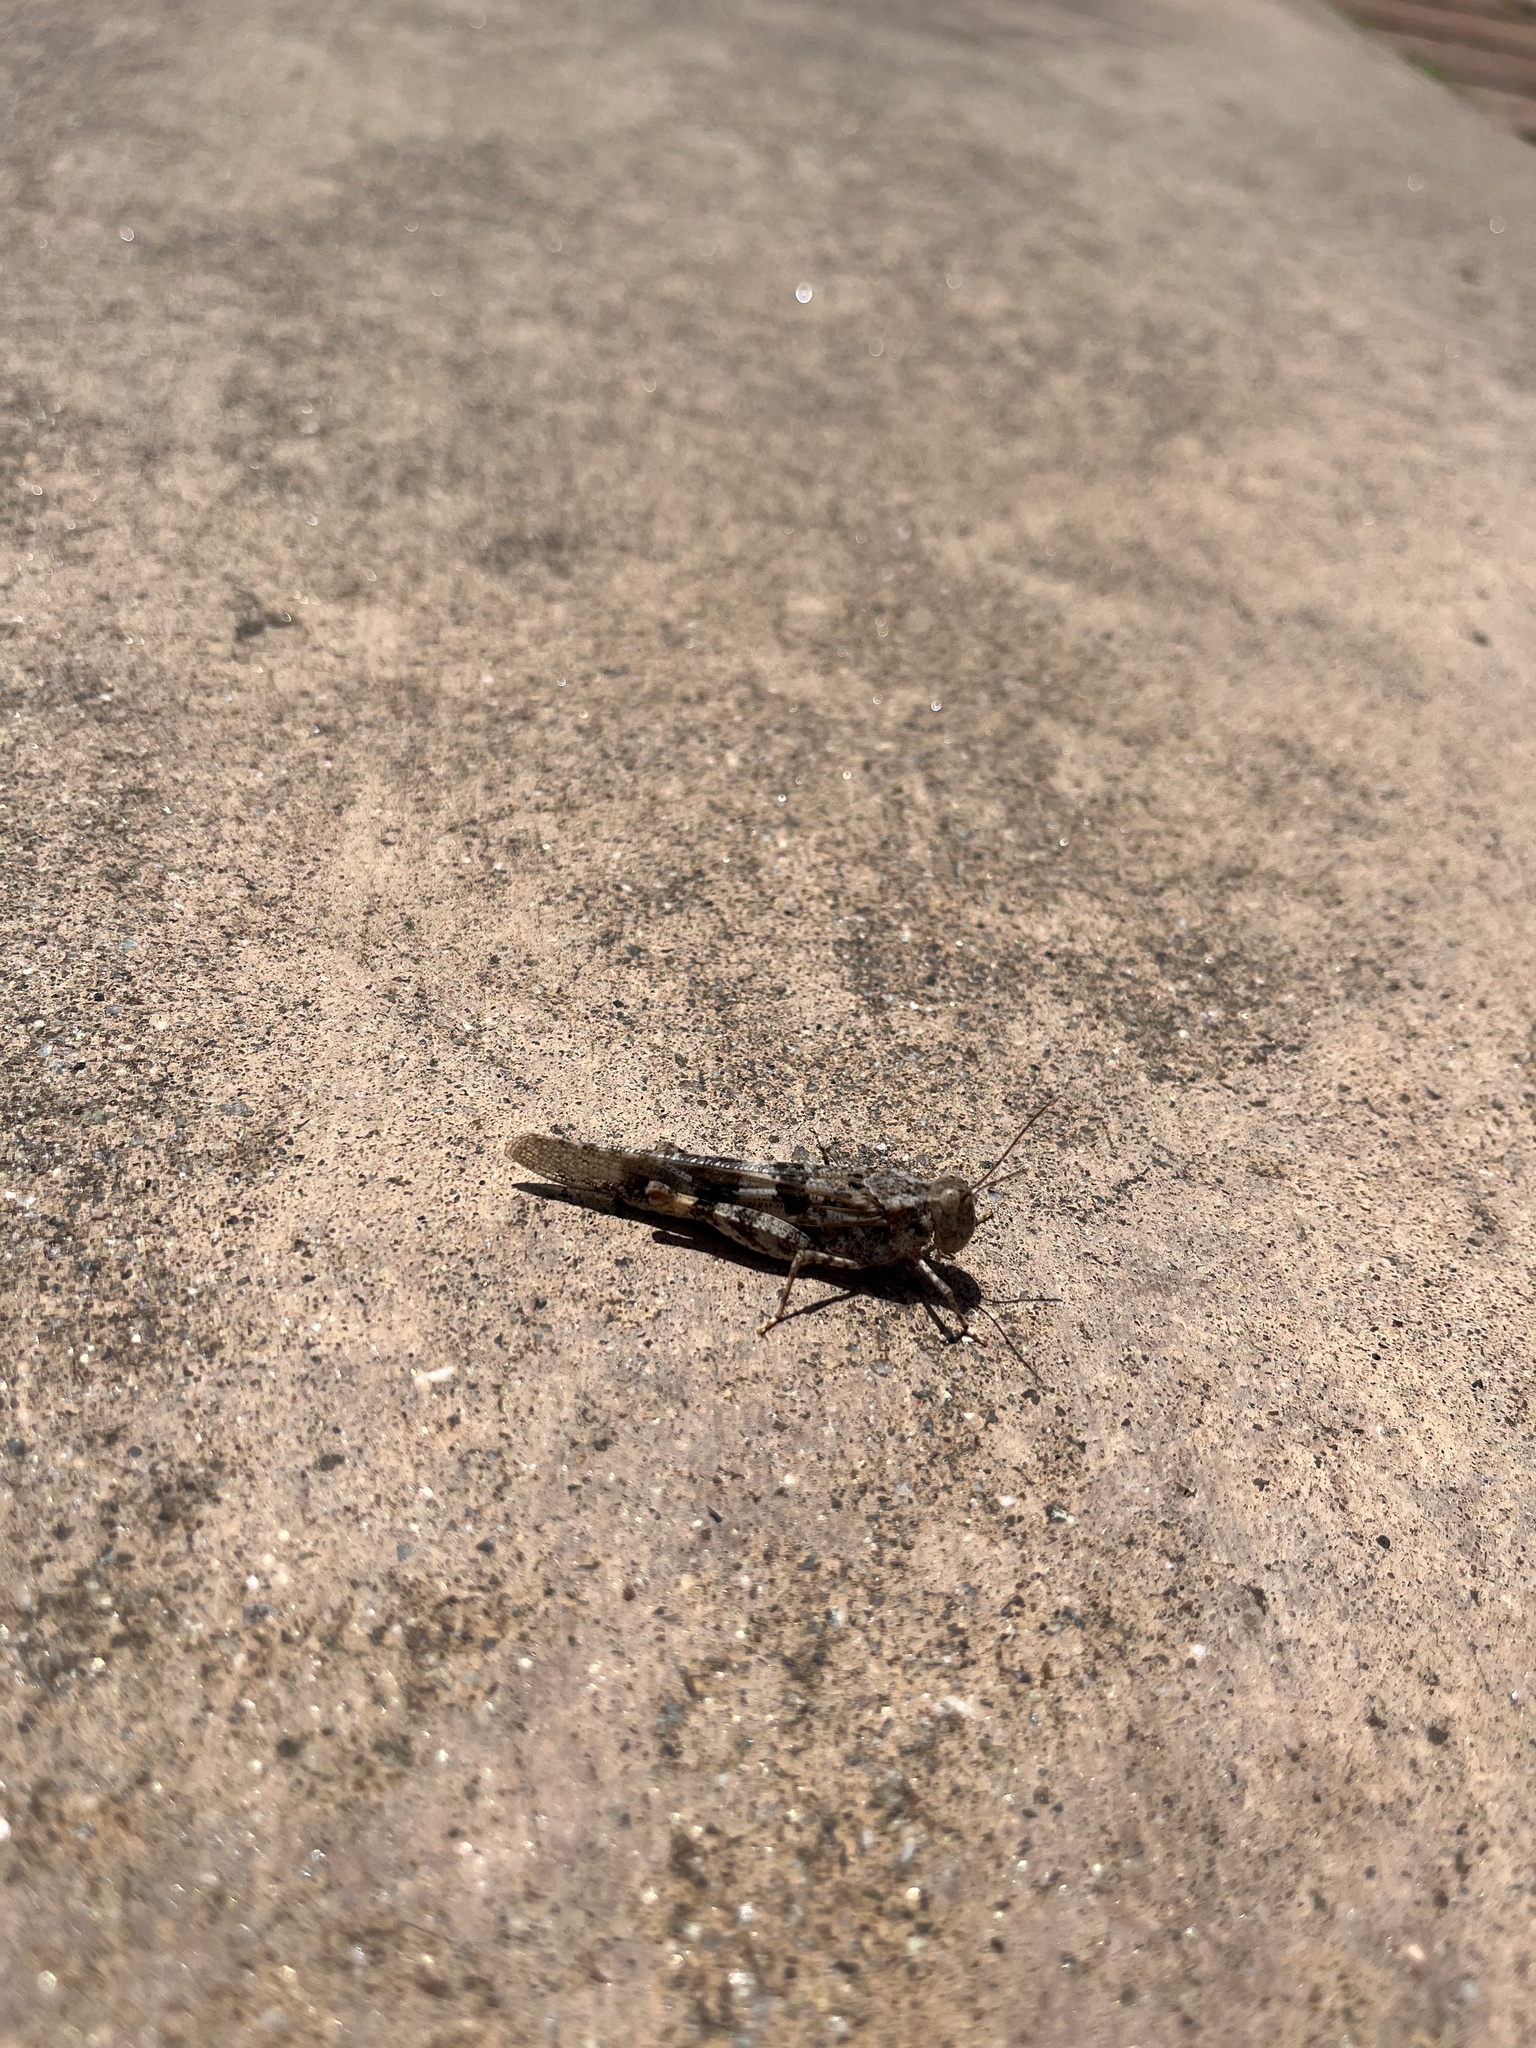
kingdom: Animalia
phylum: Arthropoda
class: Insecta
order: Orthoptera
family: Acrididae
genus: Trimerotropis
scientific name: Trimerotropis pallidipennis
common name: Pallid-winged grasshopper
